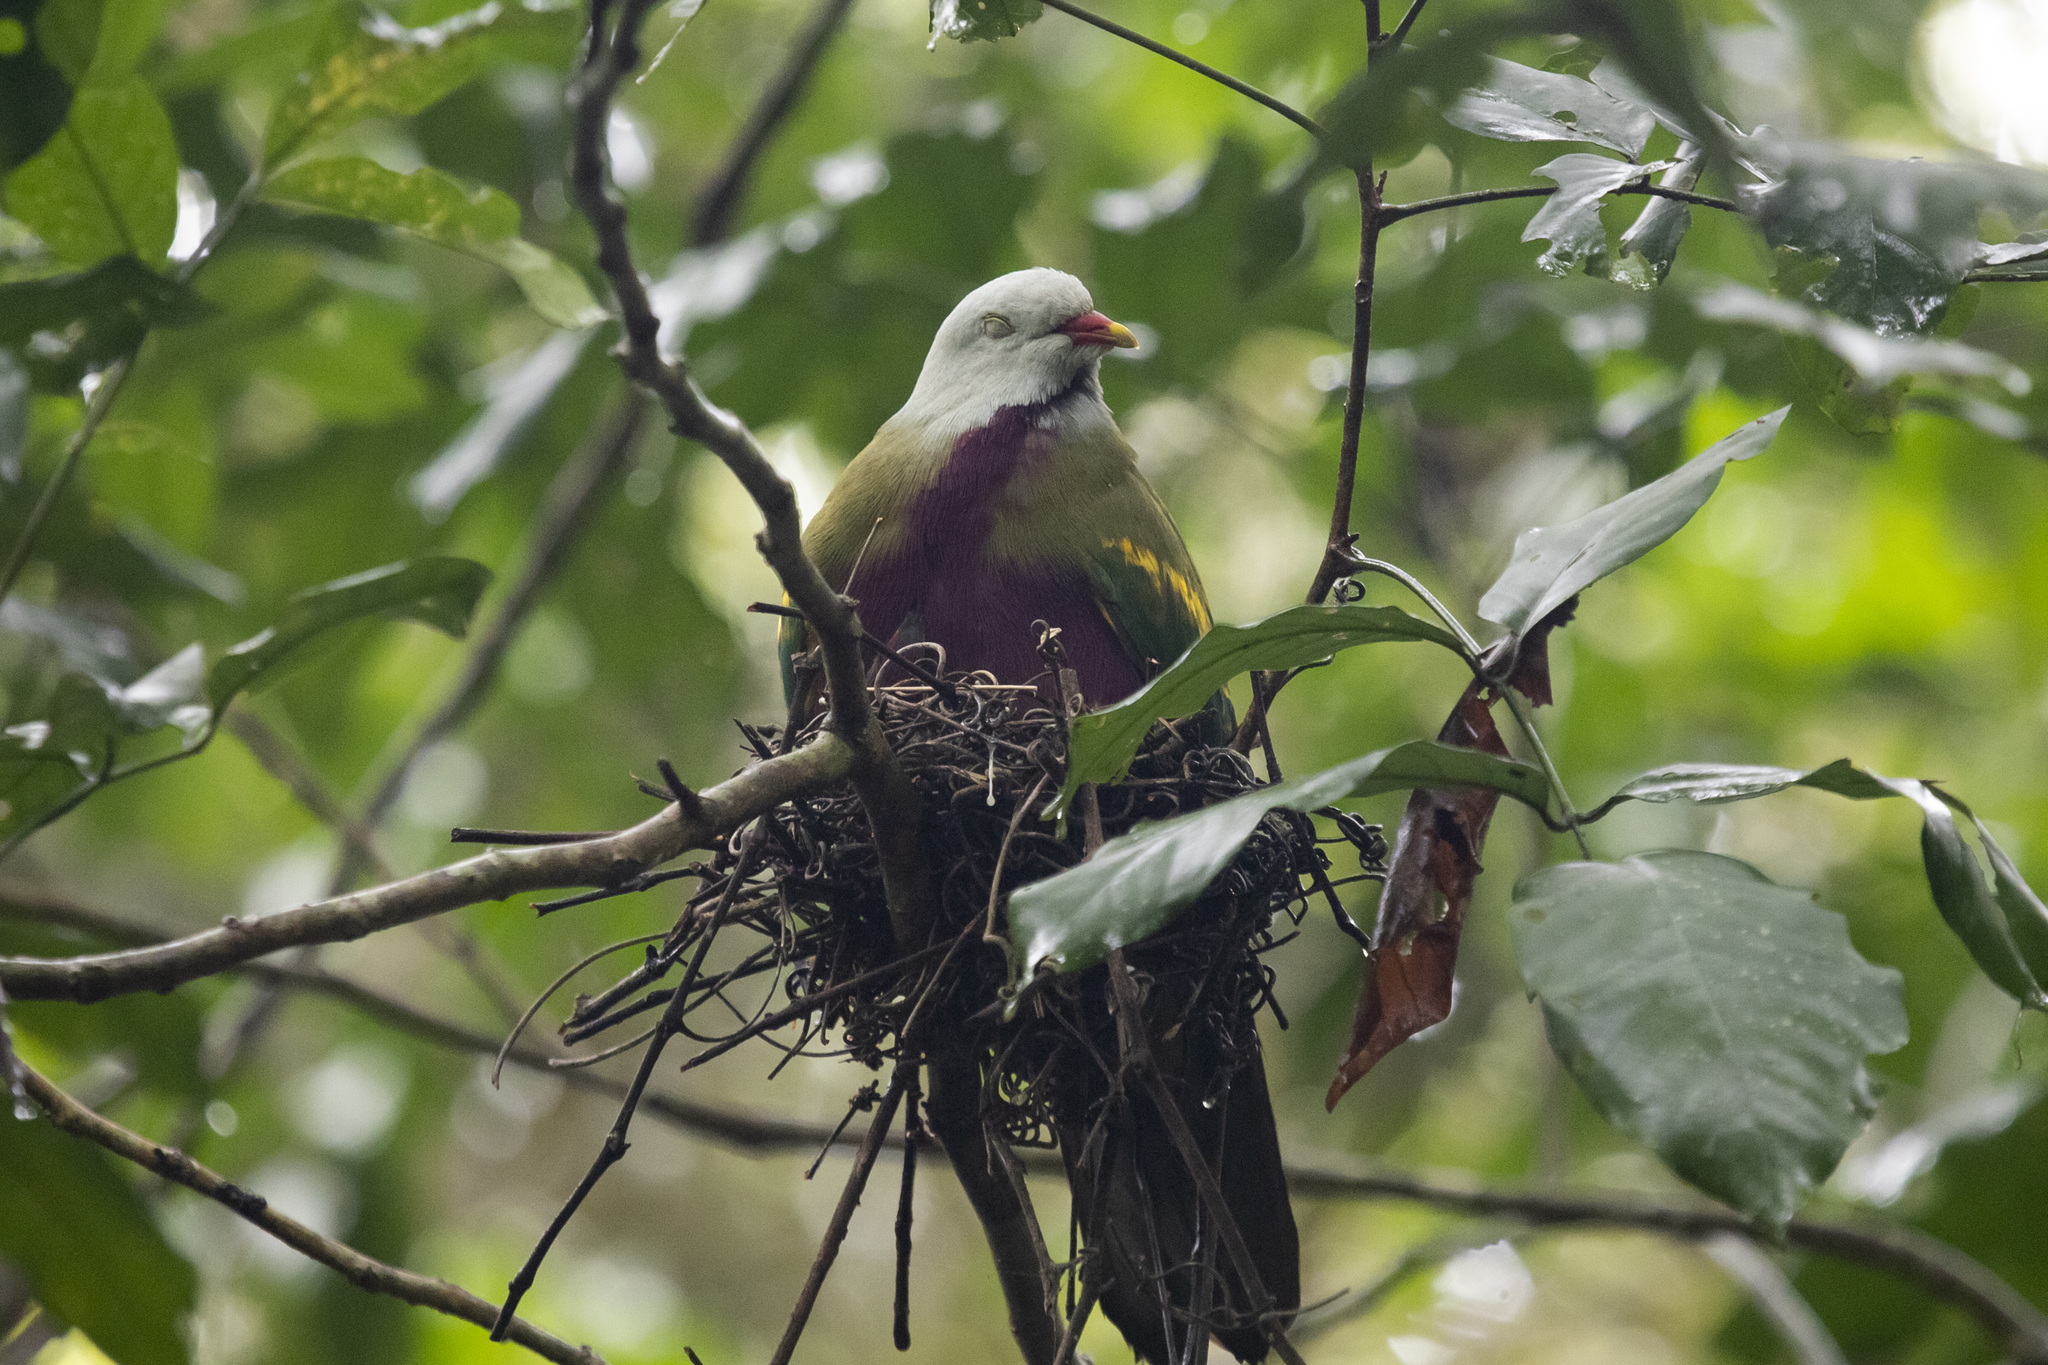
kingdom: Animalia
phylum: Chordata
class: Aves
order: Columbiformes
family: Columbidae
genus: Ptilinopus
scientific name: Ptilinopus magnificus
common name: Wompoo fruit dove
